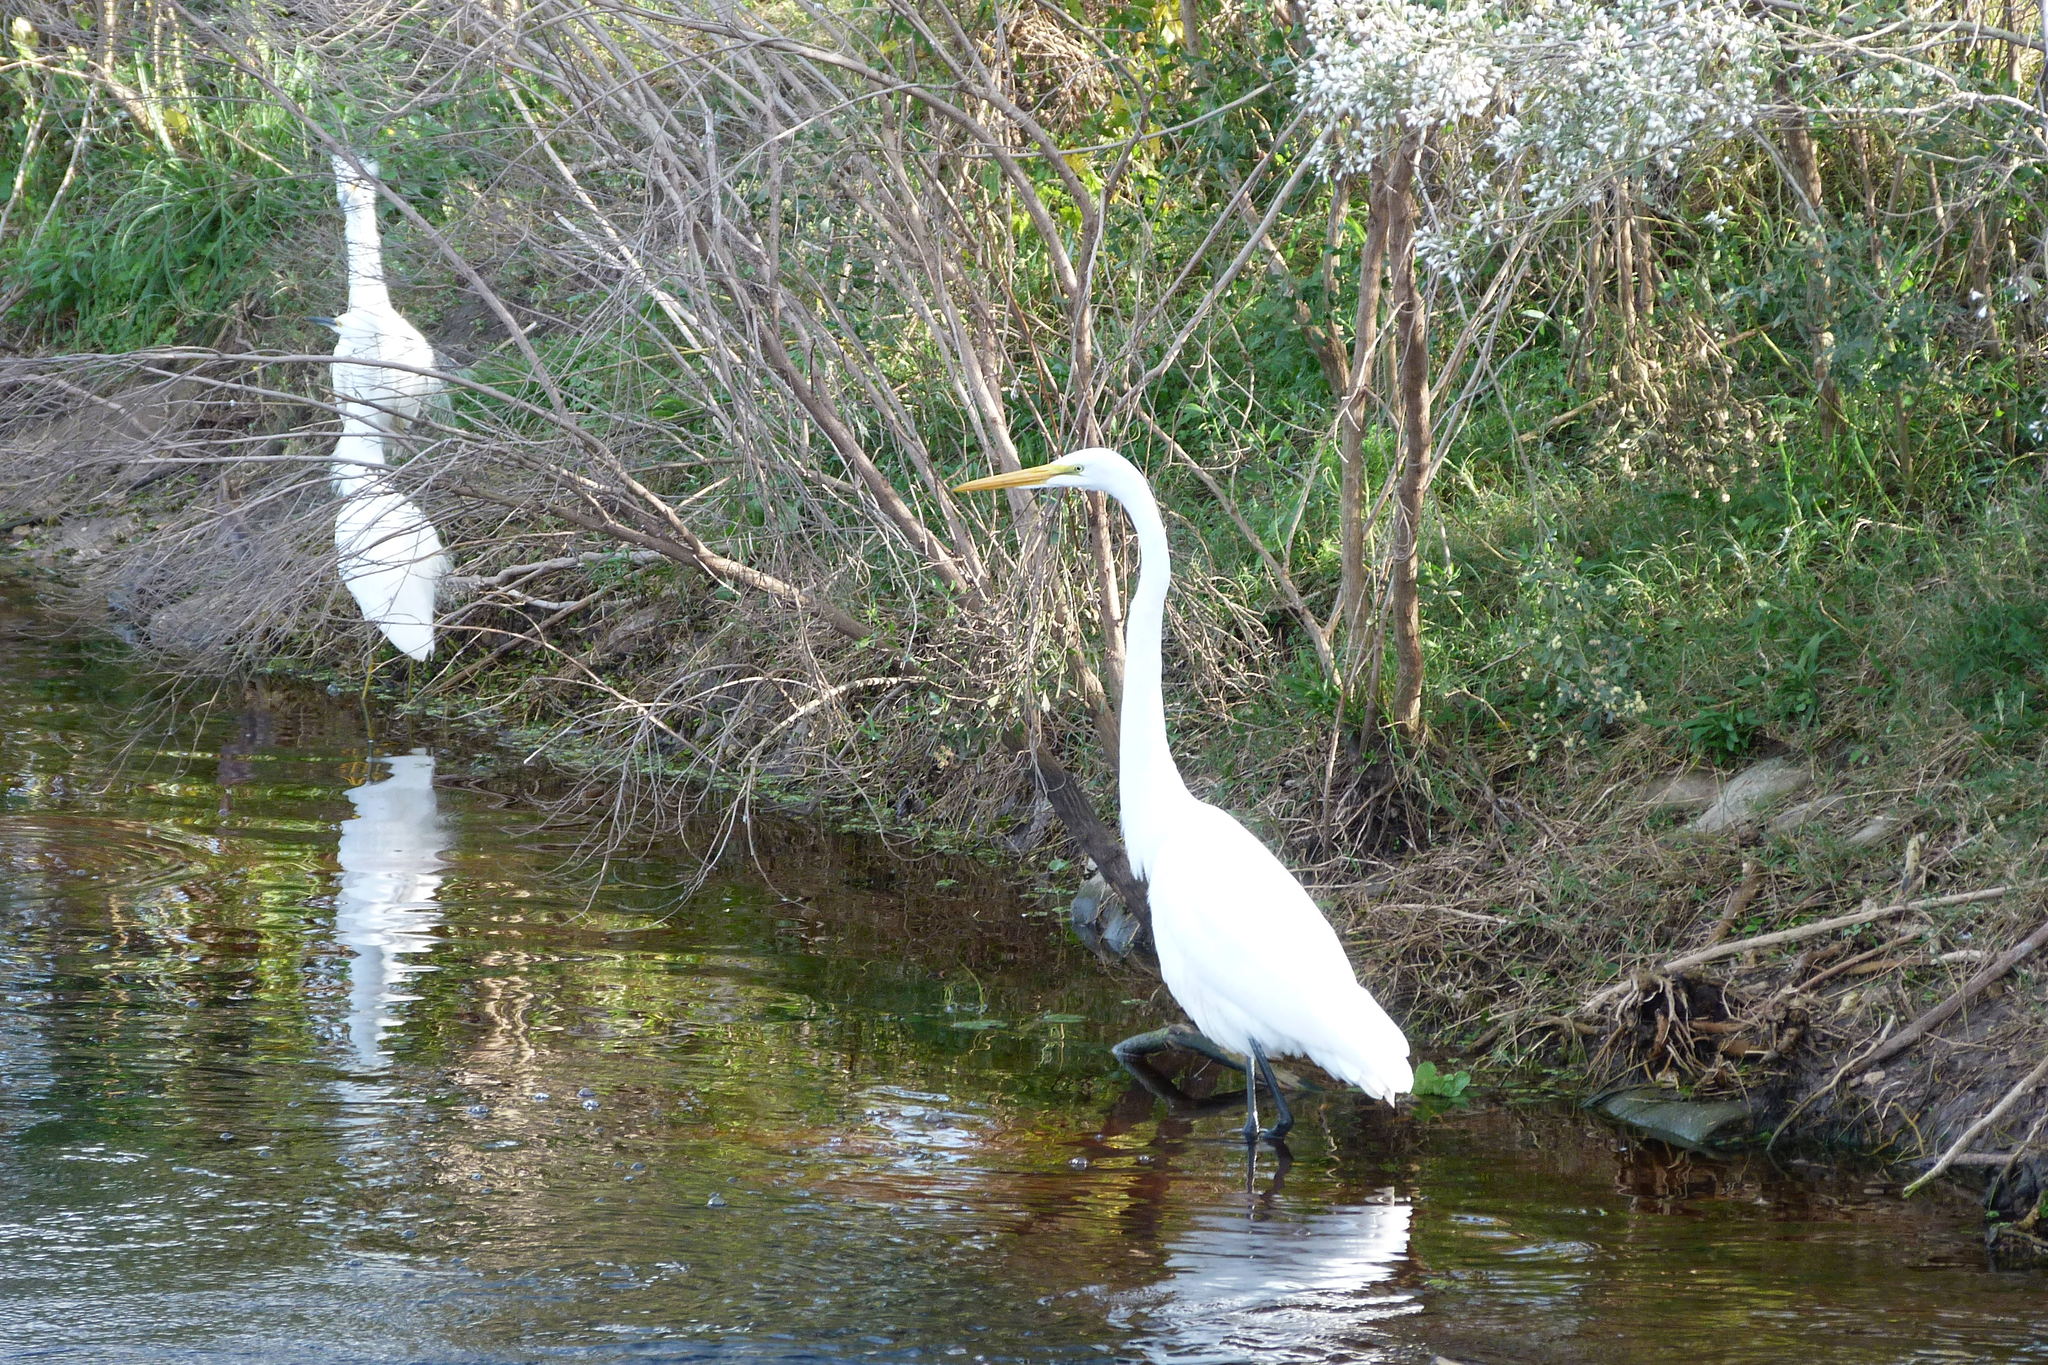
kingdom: Animalia
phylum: Chordata
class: Aves
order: Pelecaniformes
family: Ardeidae
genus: Ardea
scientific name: Ardea alba
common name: Great egret
